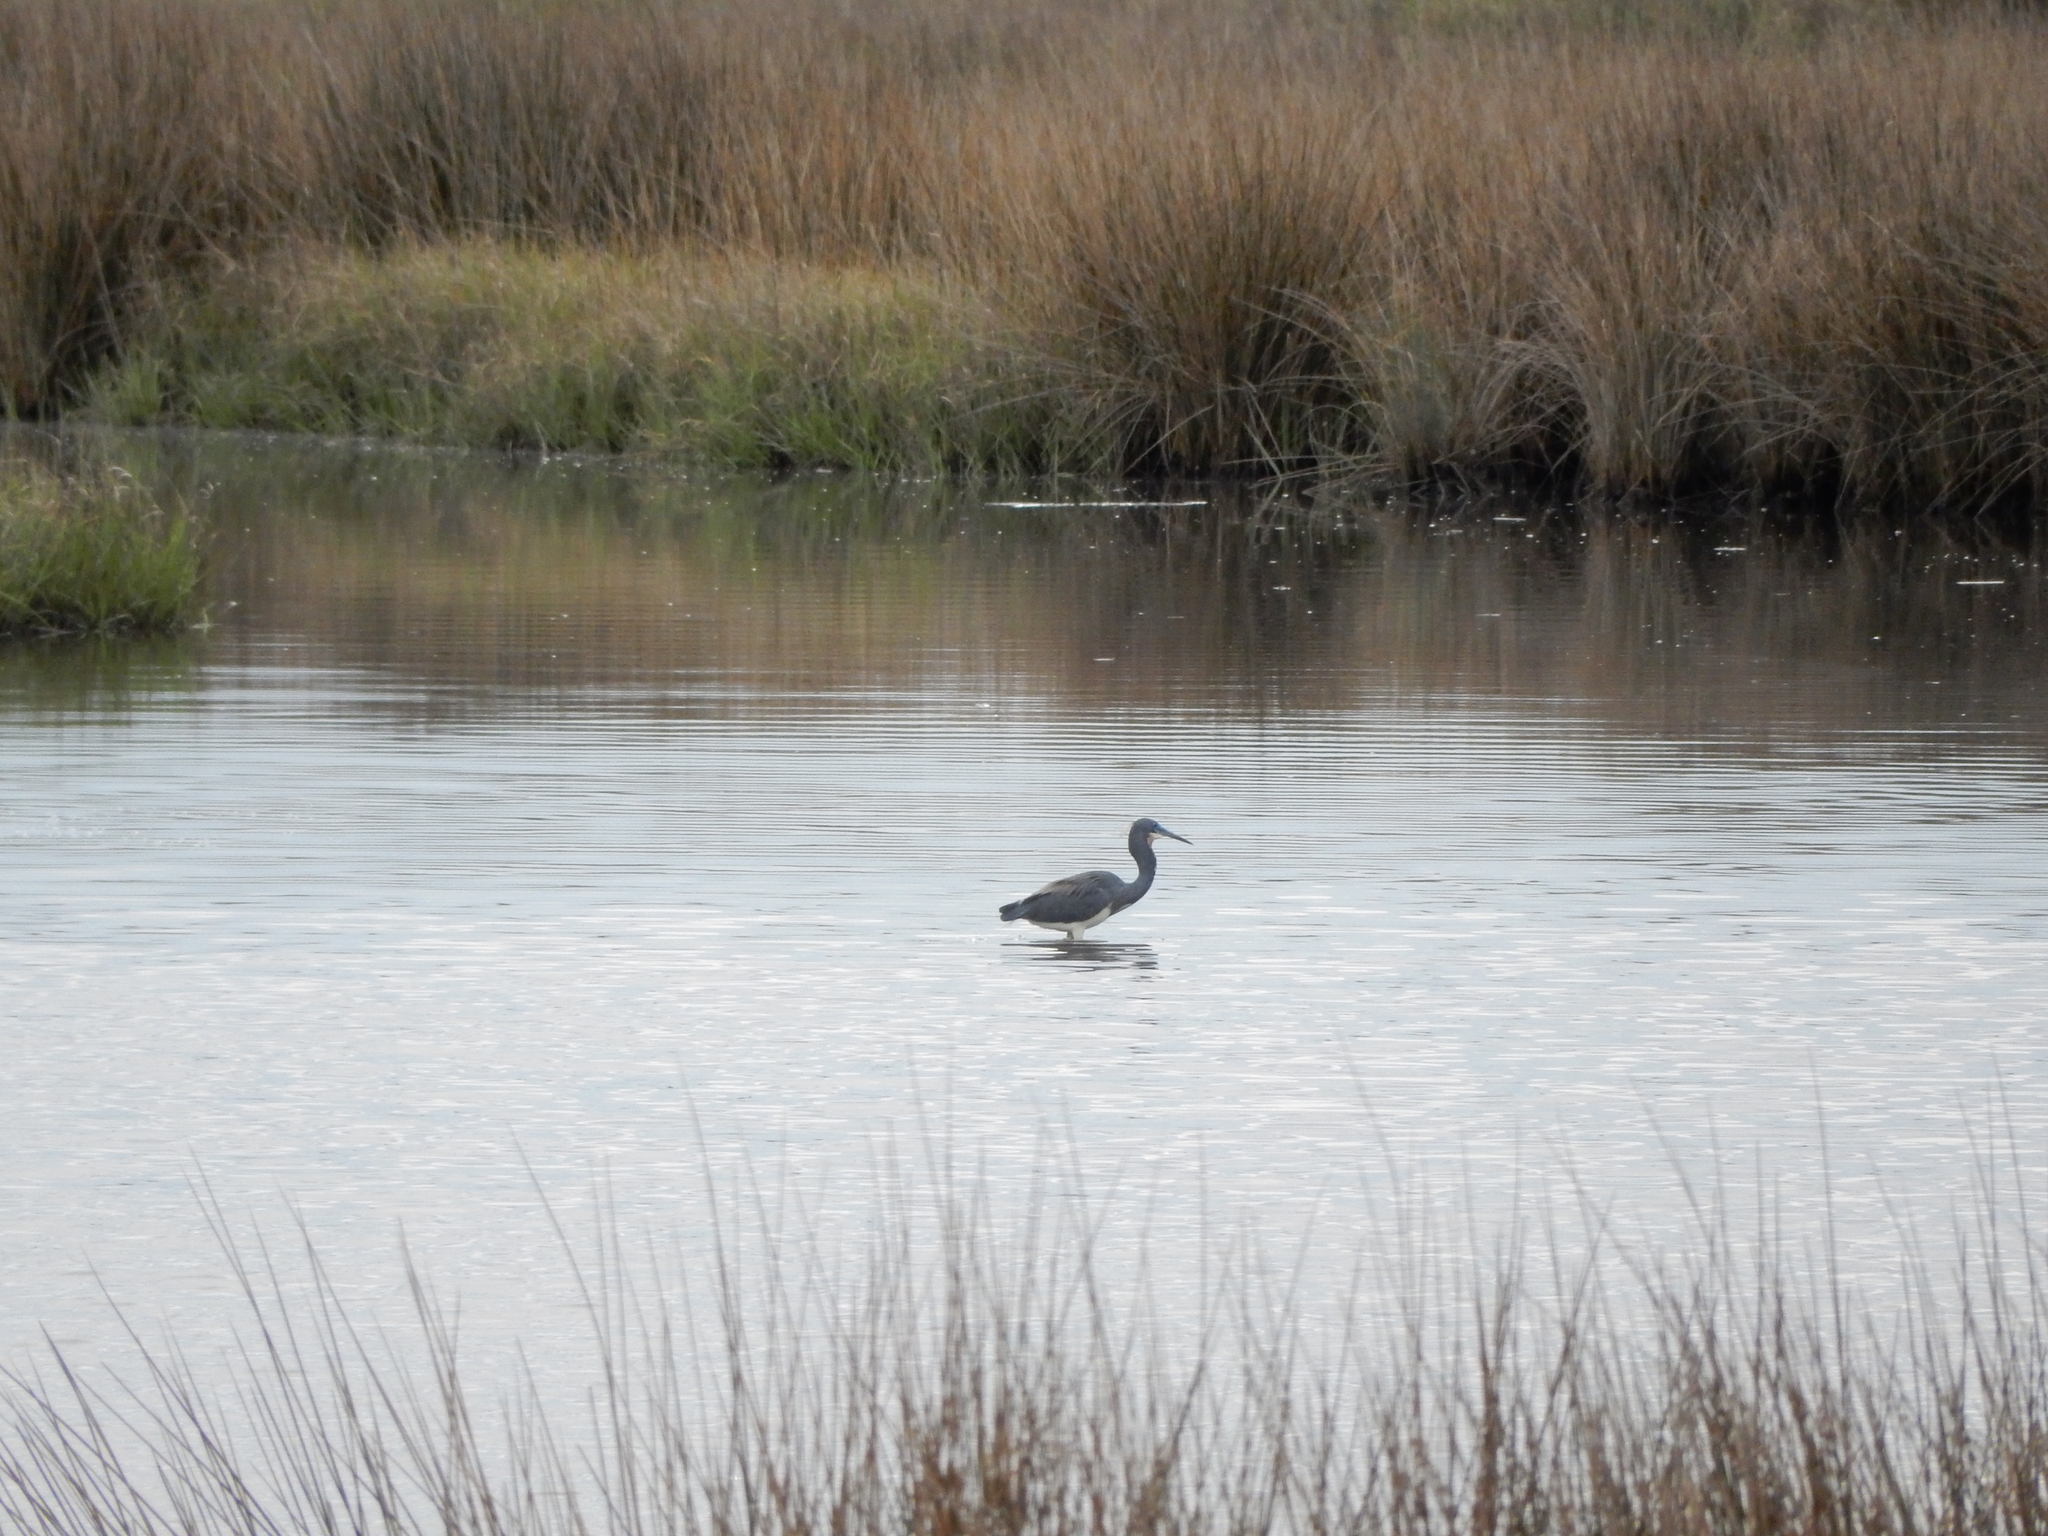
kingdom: Animalia
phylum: Chordata
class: Aves
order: Pelecaniformes
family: Ardeidae
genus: Egretta
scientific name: Egretta tricolor
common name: Tricolored heron
